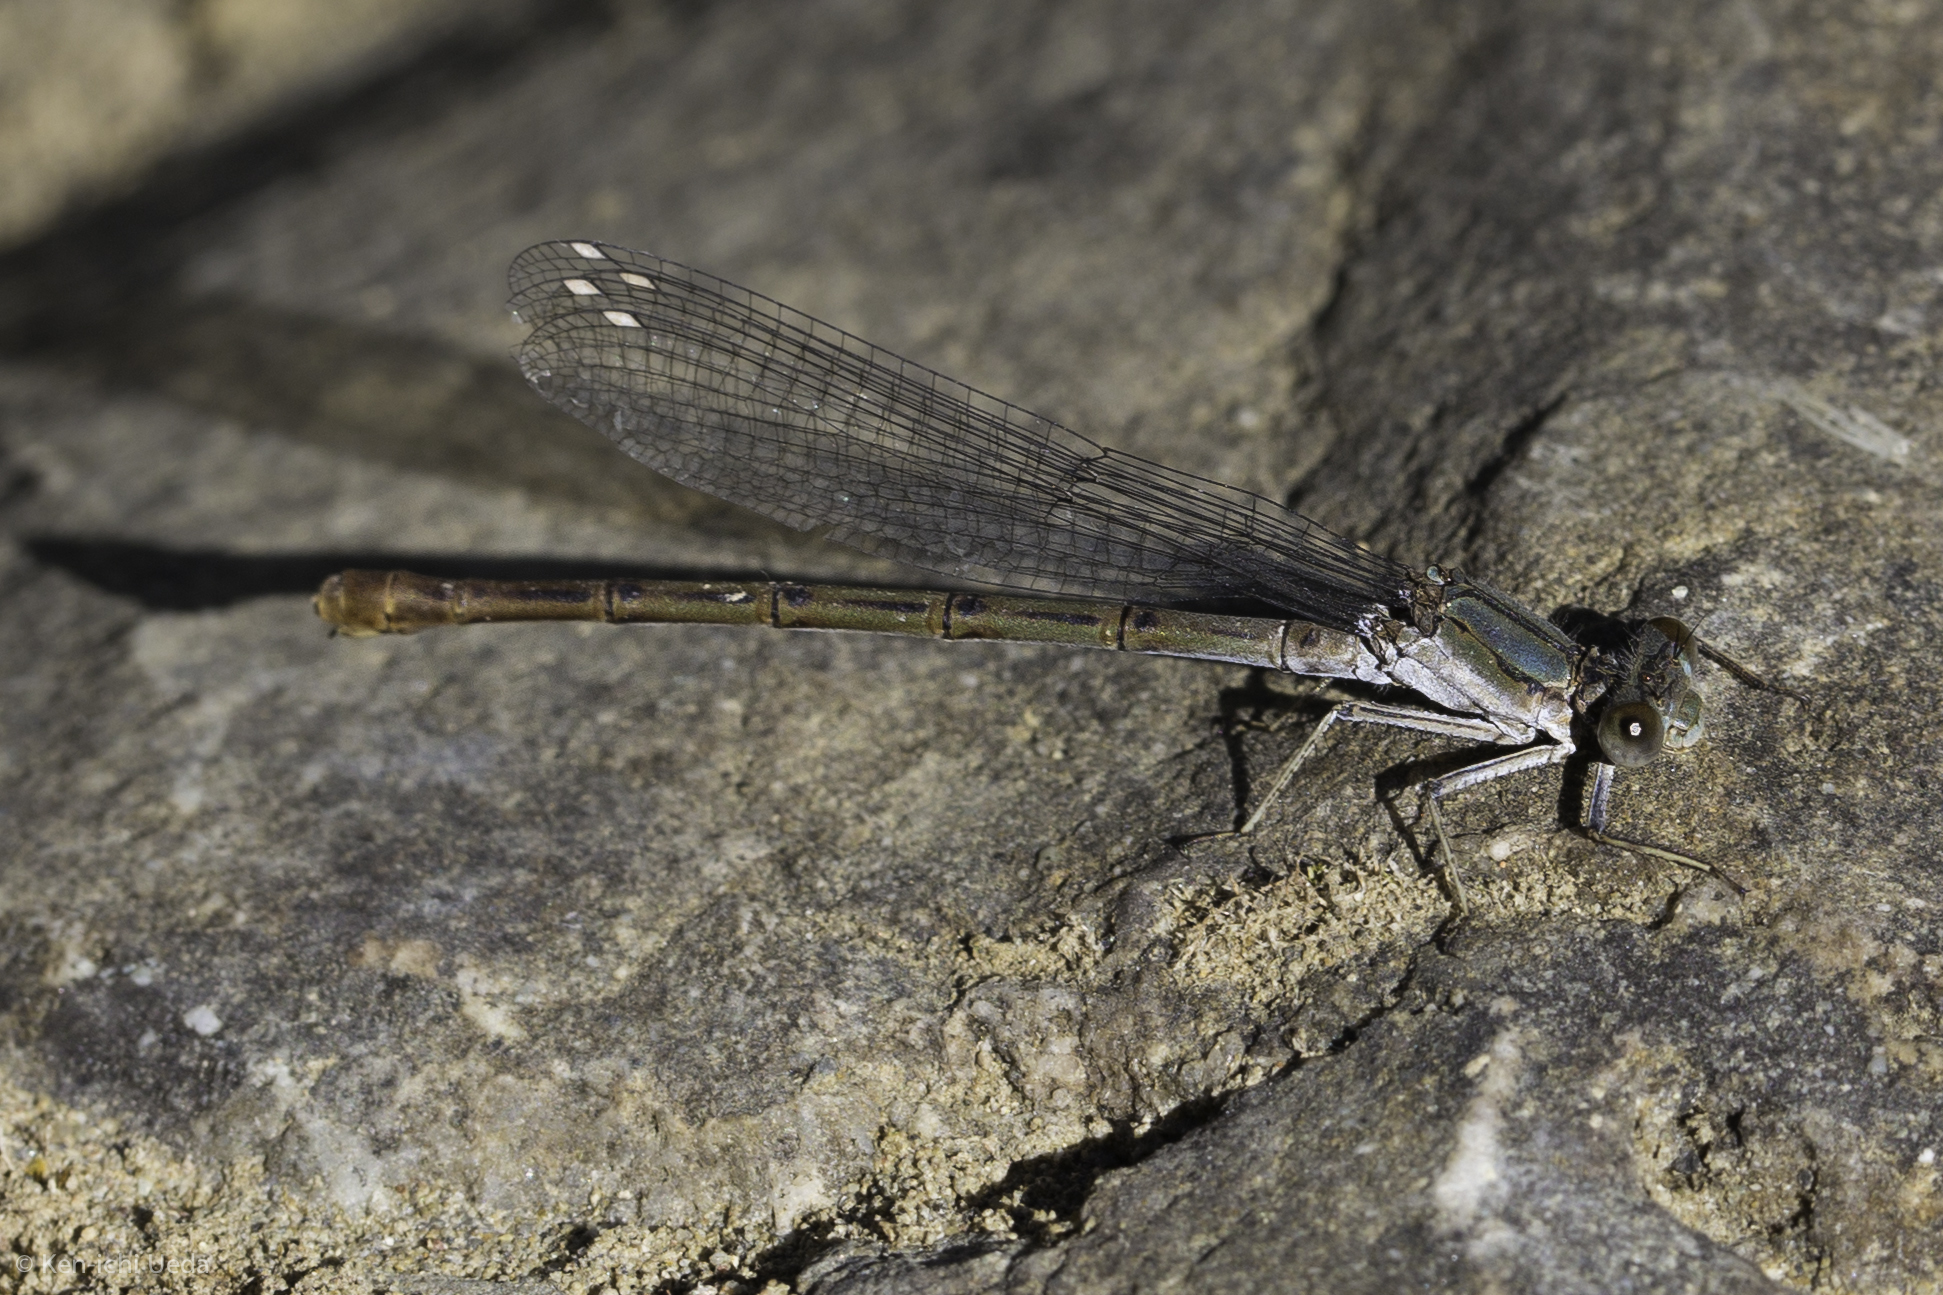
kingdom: Animalia
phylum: Arthropoda
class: Insecta
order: Odonata
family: Coenagrionidae
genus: Argia
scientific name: Argia emma
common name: Emma's dancer
